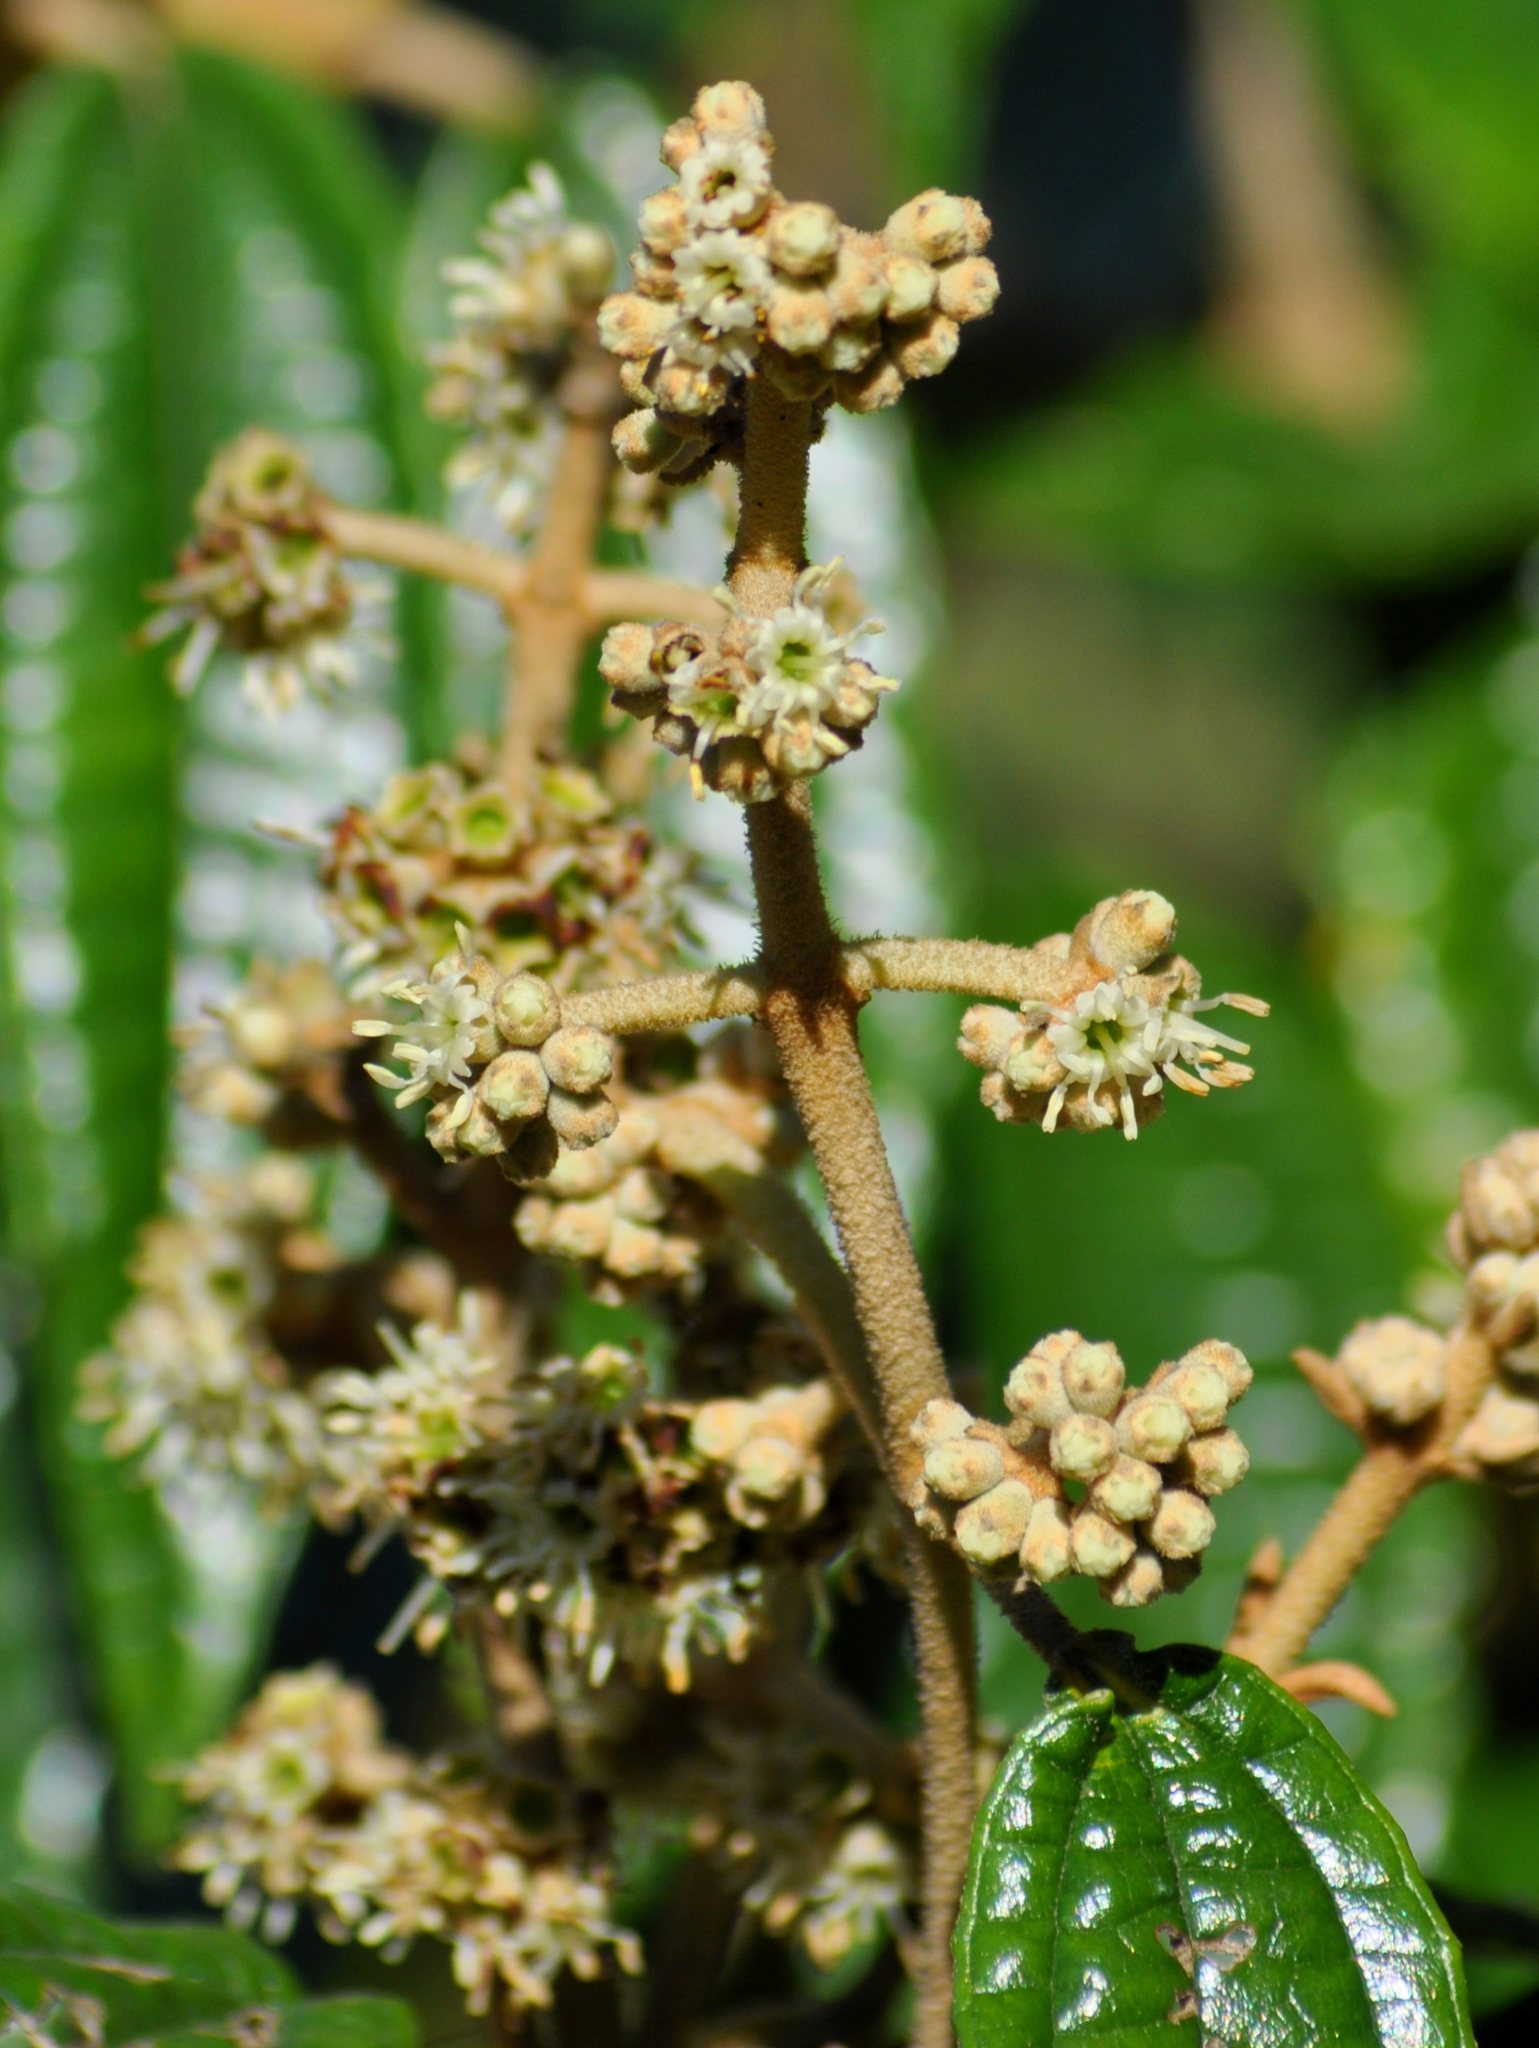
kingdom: Plantae
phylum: Tracheophyta
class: Magnoliopsida
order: Myrtales
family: Melastomataceae
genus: Miconia
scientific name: Miconia hyemalis
